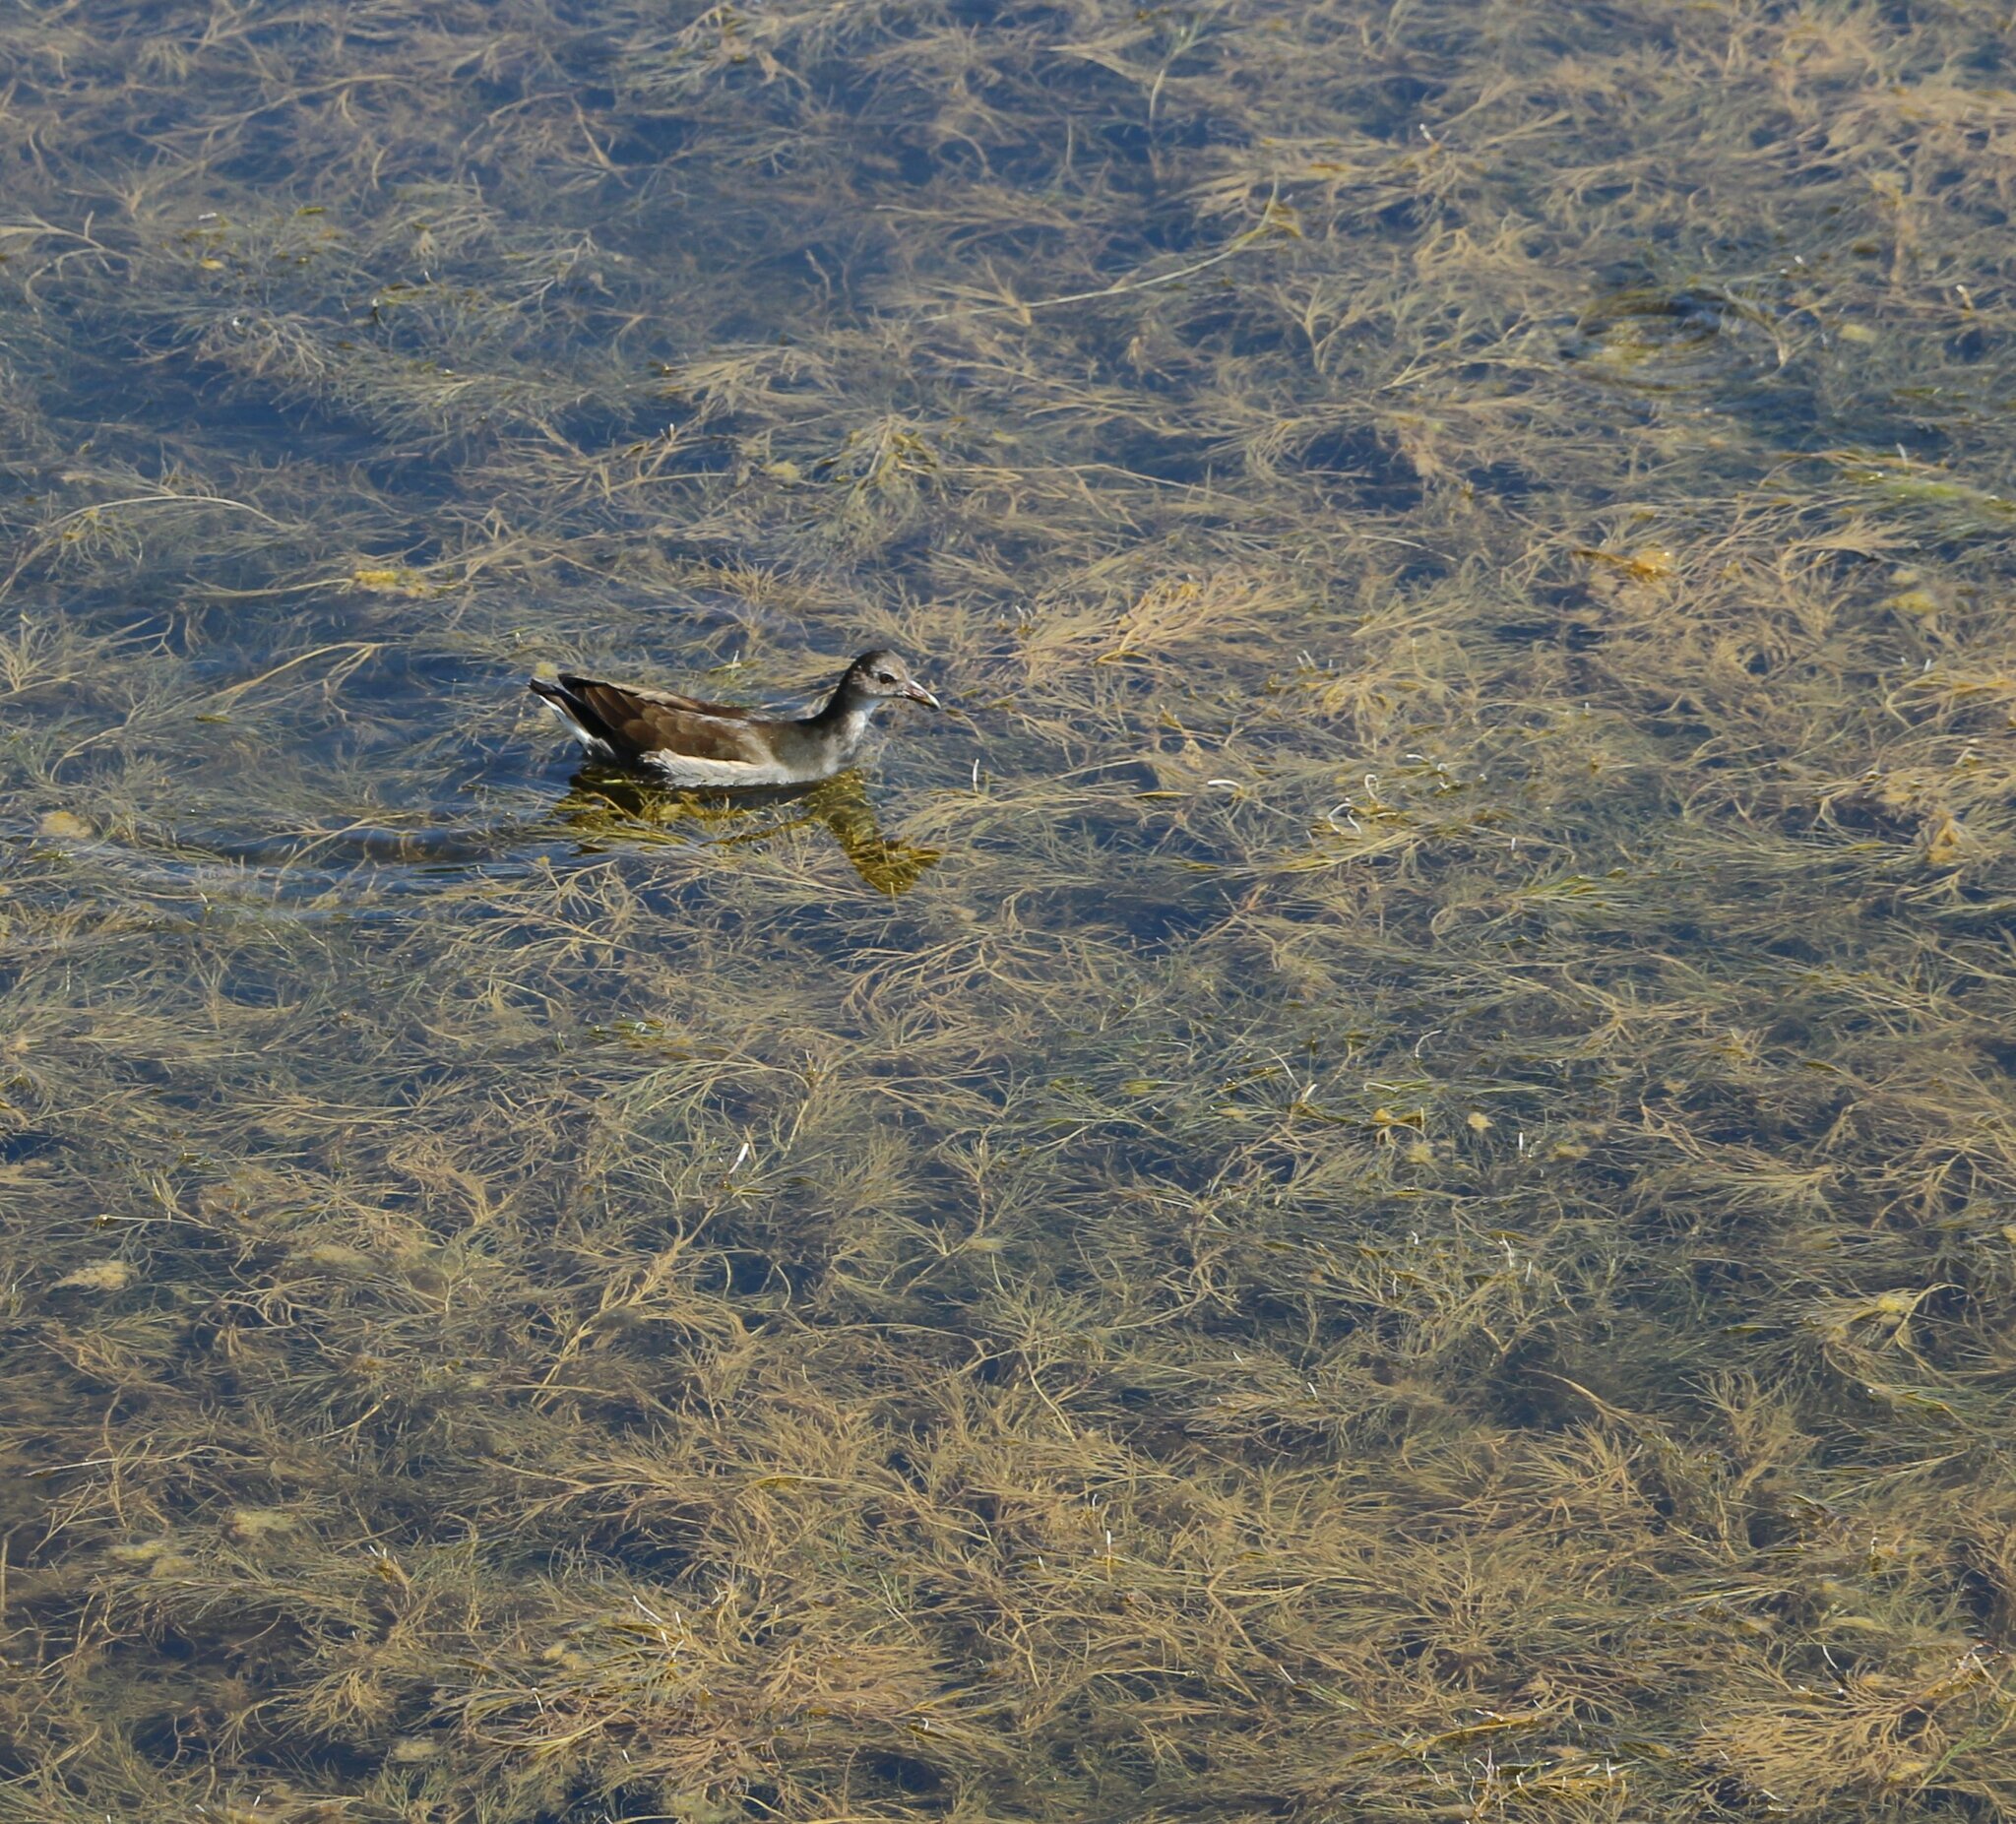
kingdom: Animalia
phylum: Chordata
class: Aves
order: Gruiformes
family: Rallidae
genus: Gallinula
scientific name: Gallinula chloropus
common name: Common moorhen
